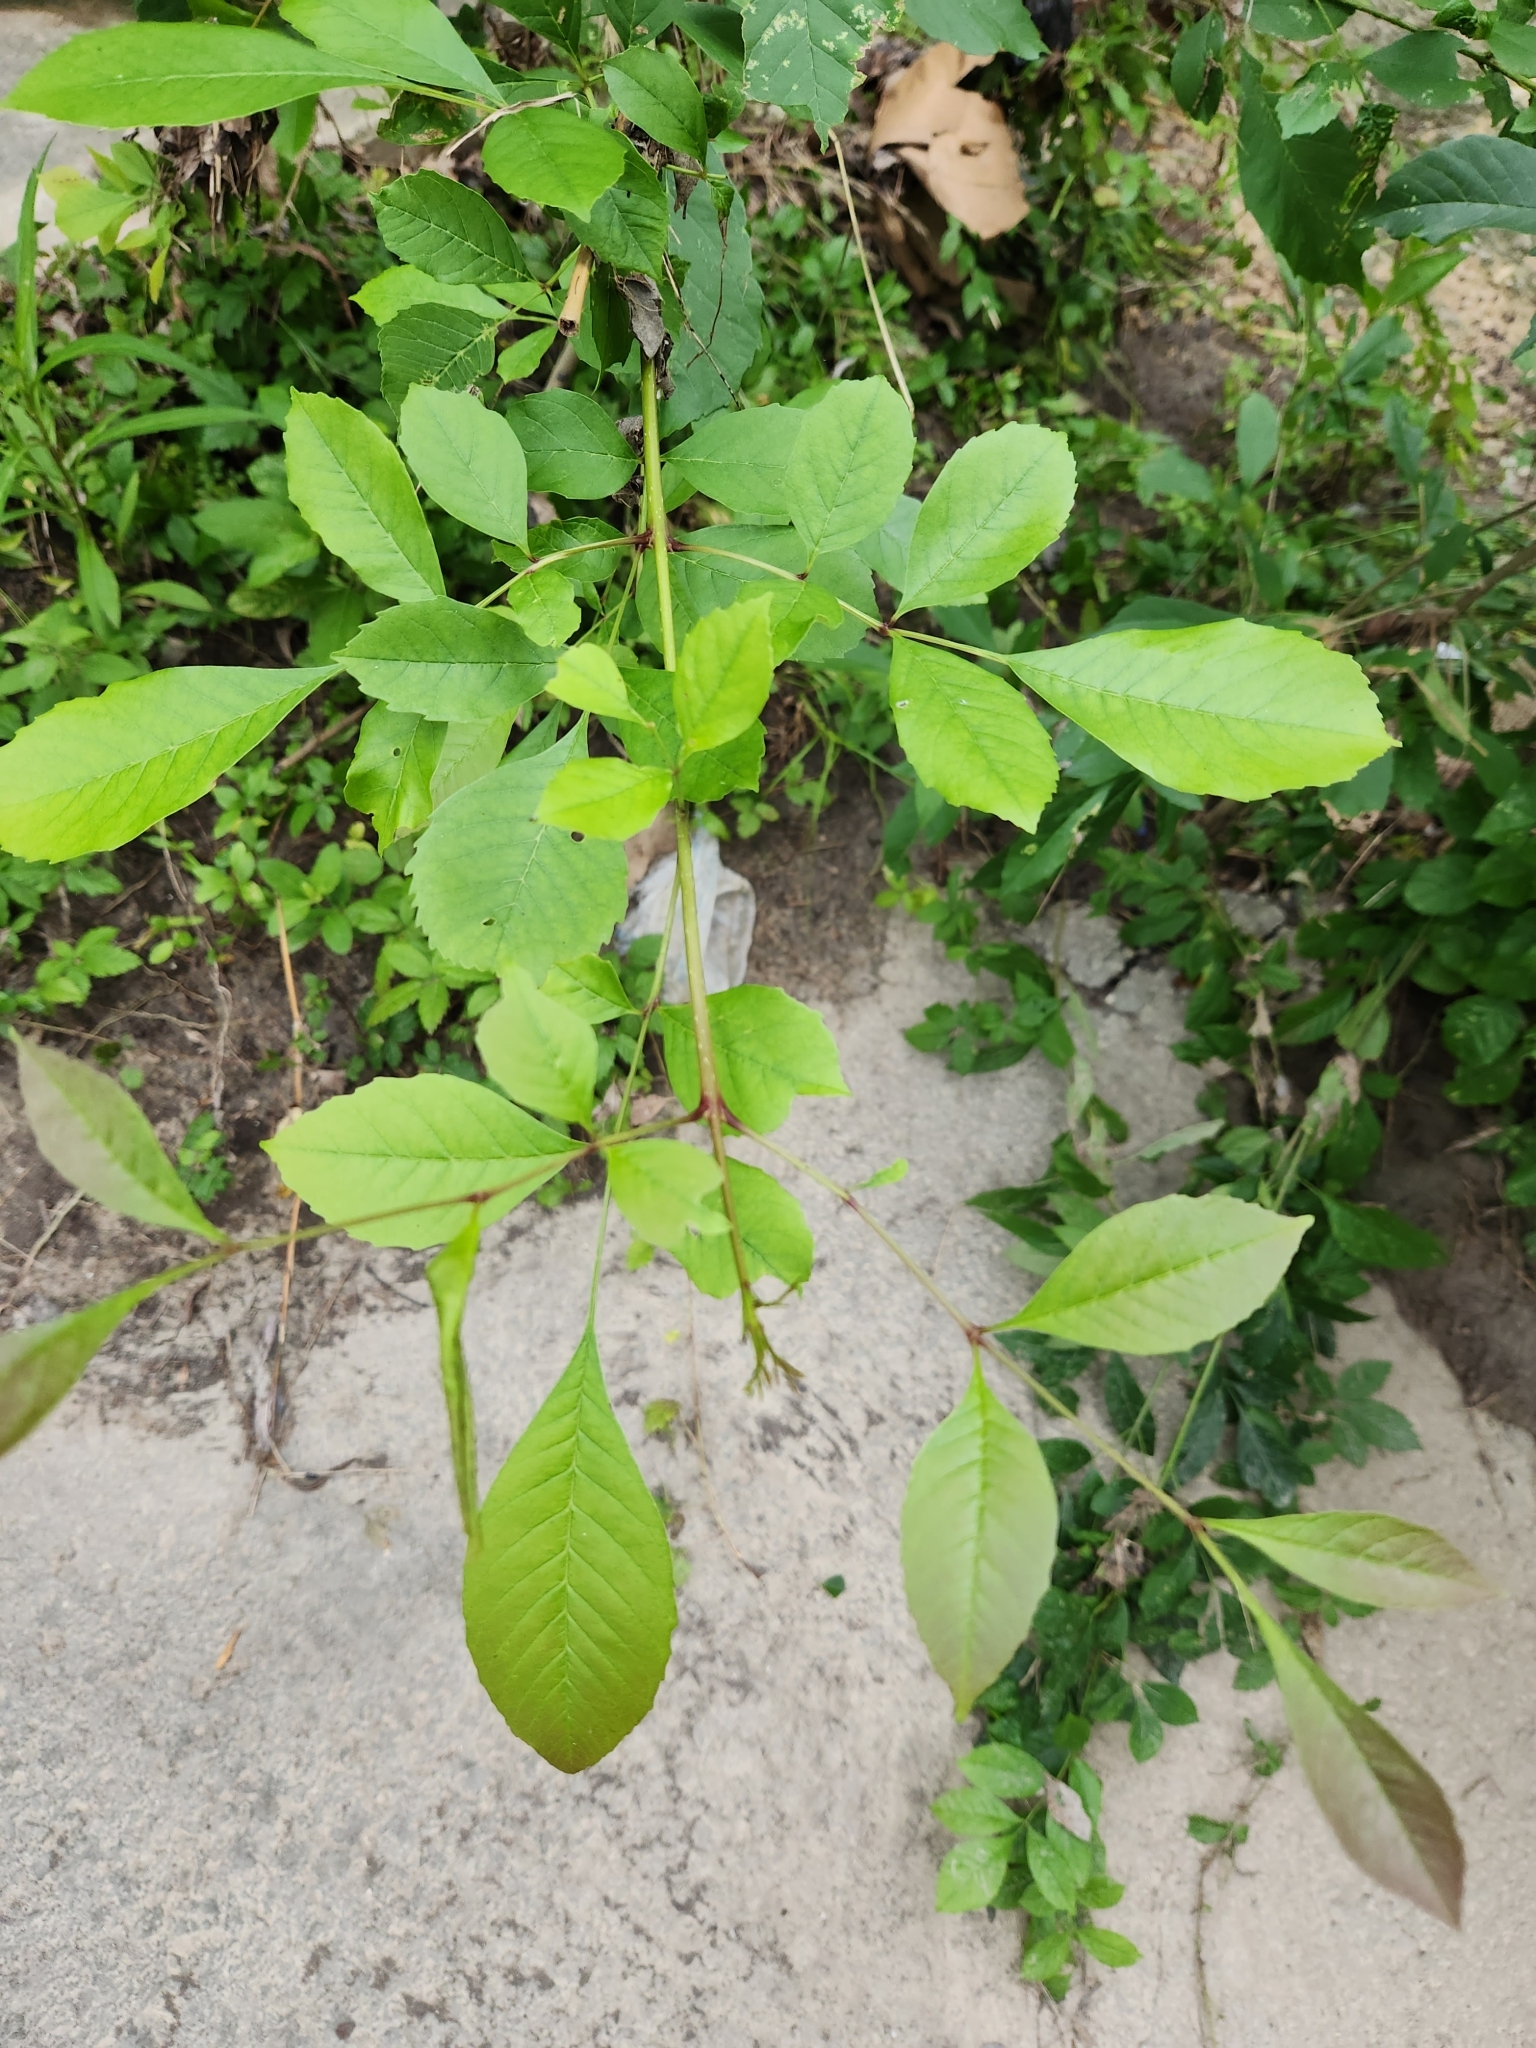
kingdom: Plantae
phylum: Tracheophyta
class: Magnoliopsida
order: Lamiales
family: Oleaceae
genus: Fraxinus
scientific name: Fraxinus berlandieriana
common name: Berlandier ash
